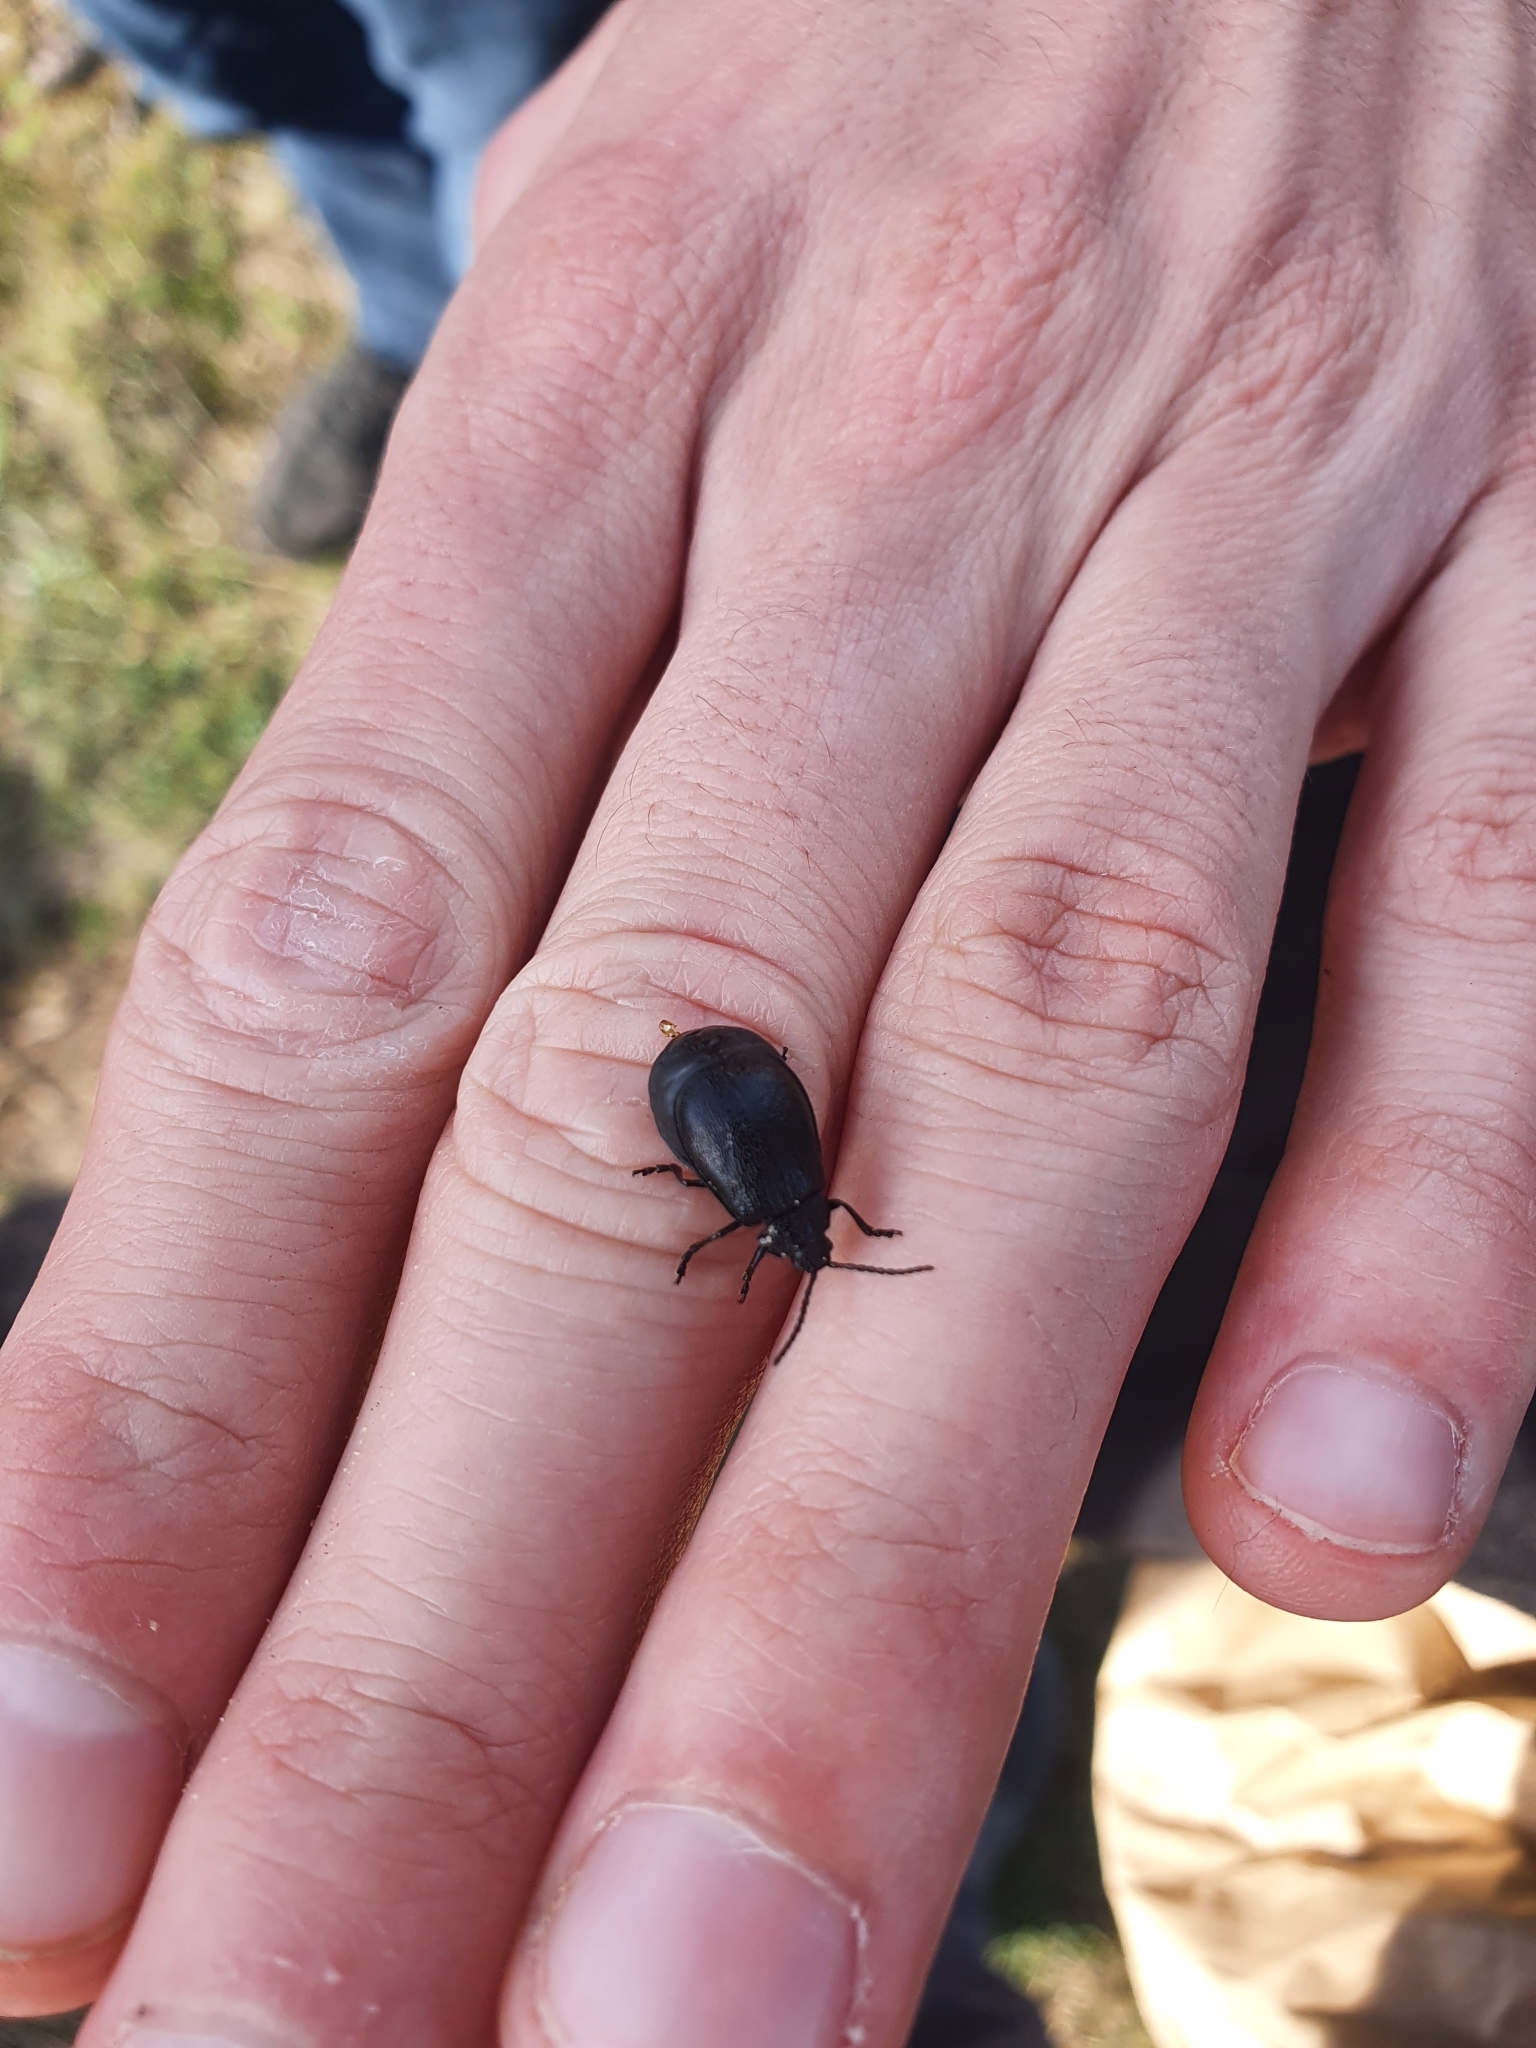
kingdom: Animalia
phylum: Arthropoda
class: Insecta
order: Coleoptera
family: Chrysomelidae
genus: Galeruca
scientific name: Galeruca tanaceti
